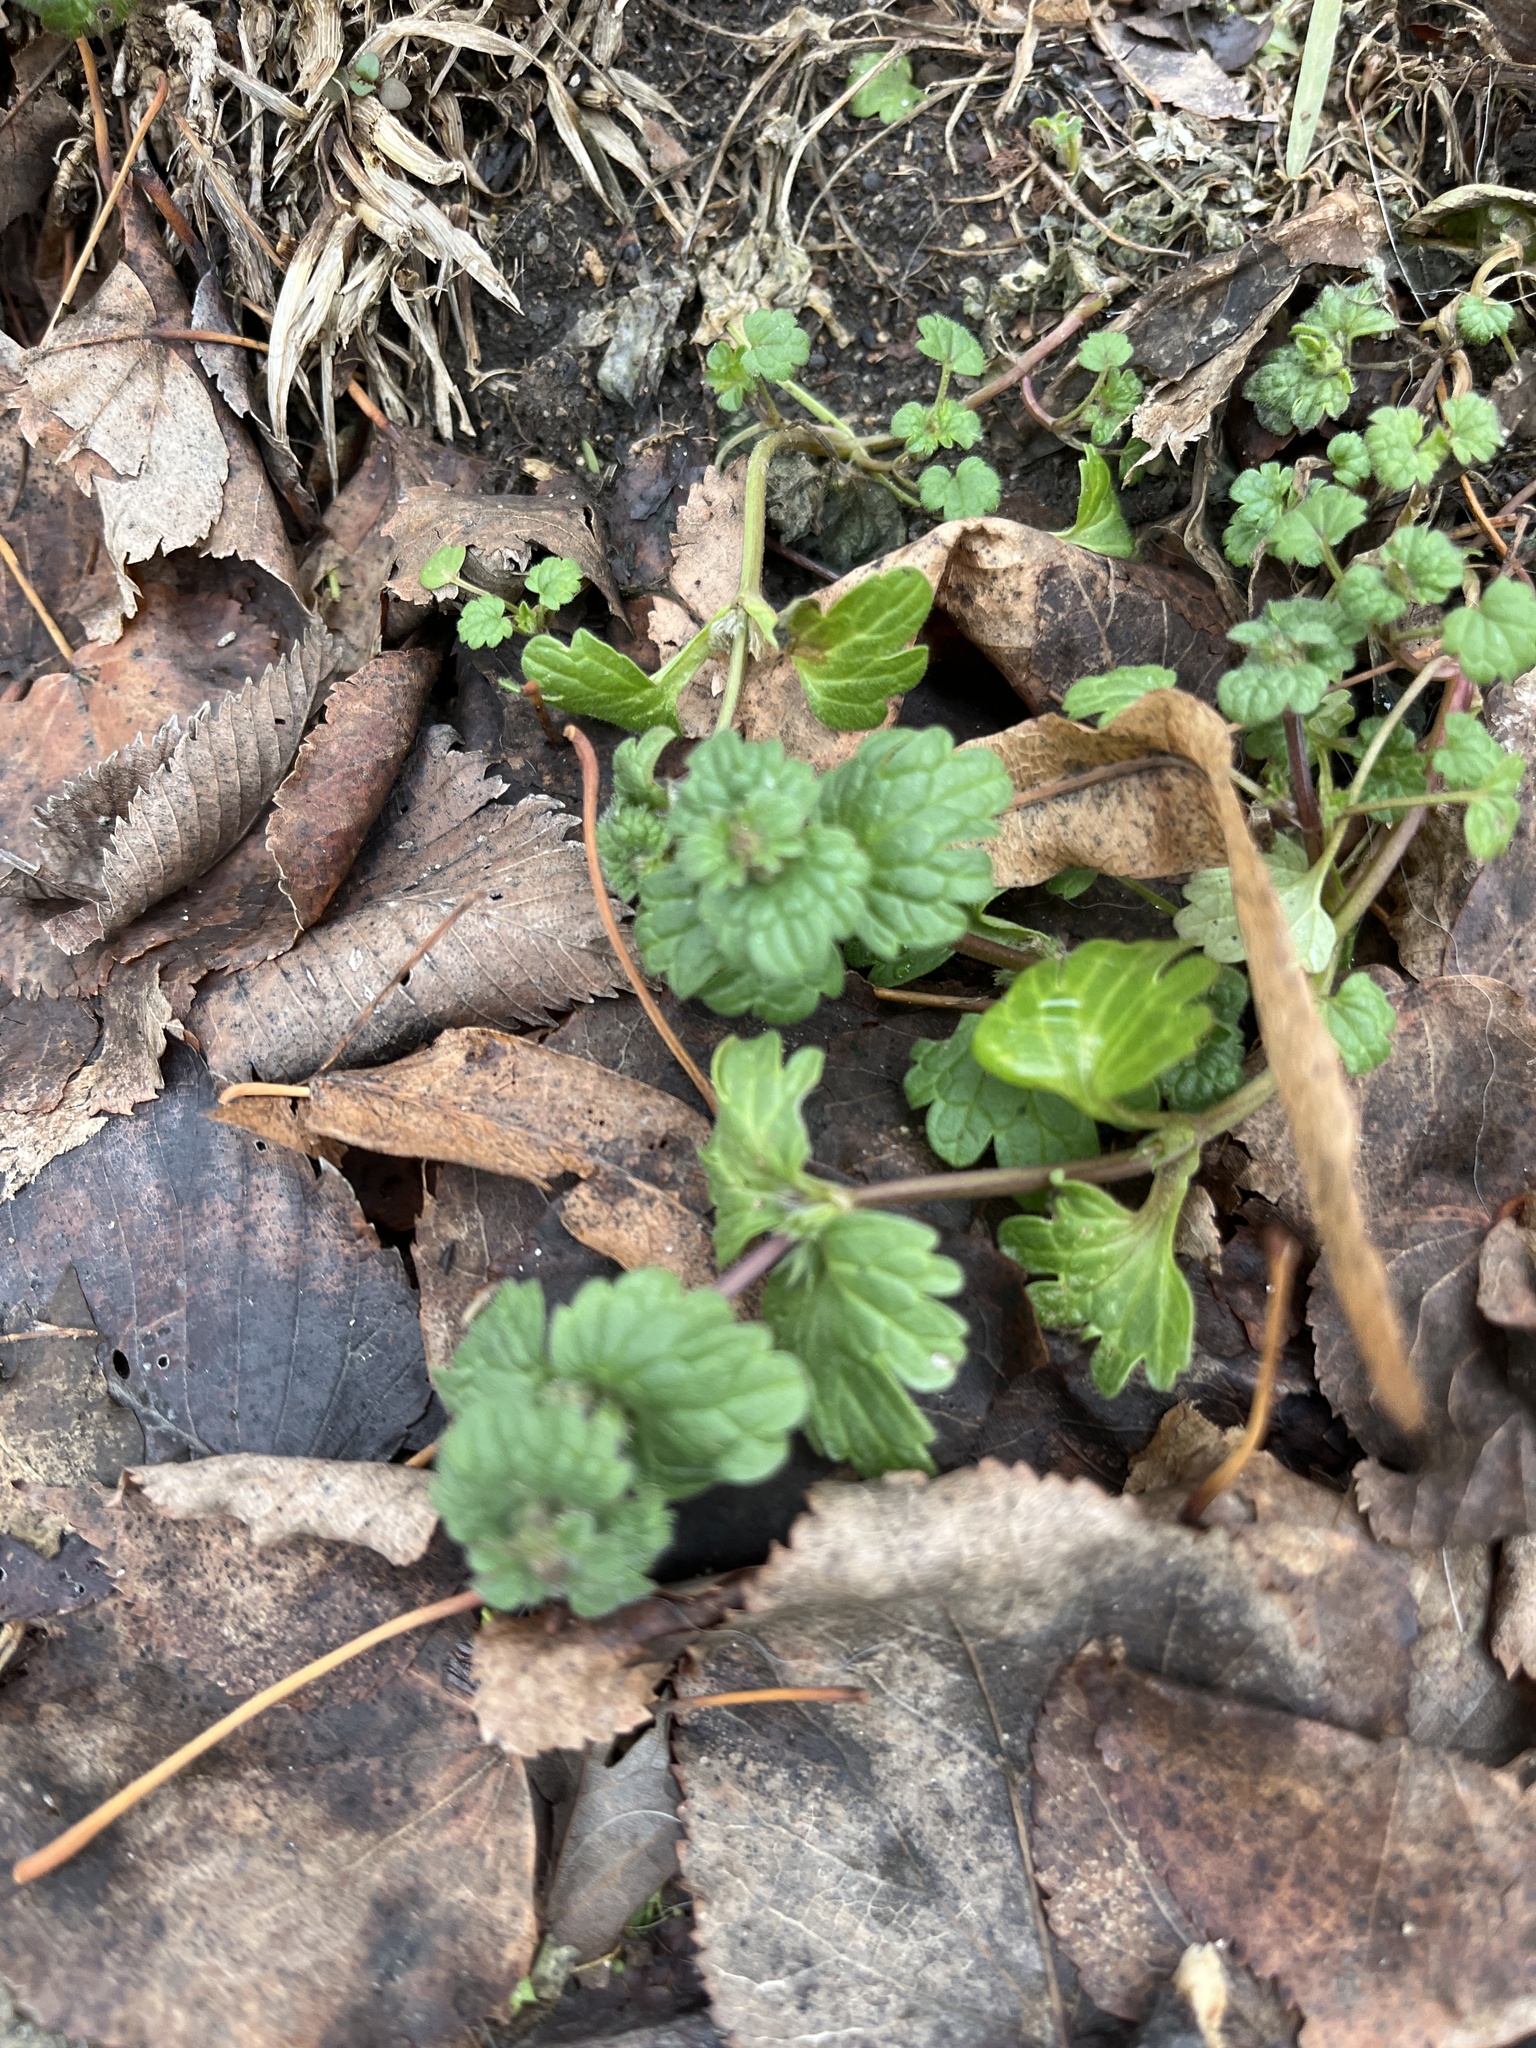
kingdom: Plantae
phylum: Tracheophyta
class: Magnoliopsida
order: Lamiales
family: Lamiaceae
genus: Lamium
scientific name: Lamium amplexicaule
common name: Henbit dead-nettle
